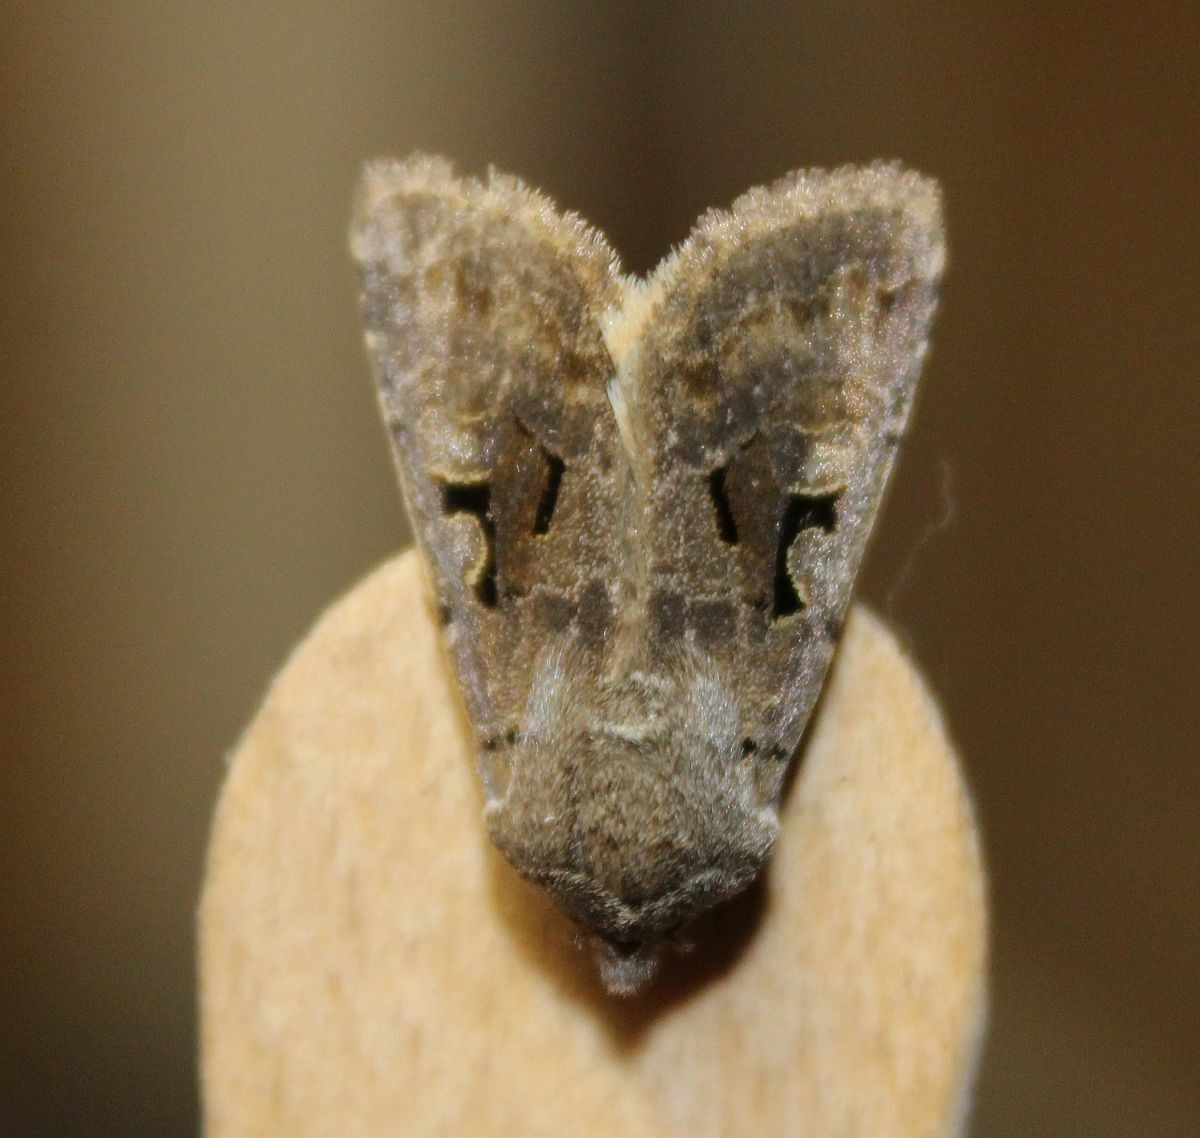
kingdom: Animalia
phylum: Arthropoda
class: Insecta
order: Lepidoptera
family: Noctuidae
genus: Orthosia
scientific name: Orthosia gothica
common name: Hebrew character
